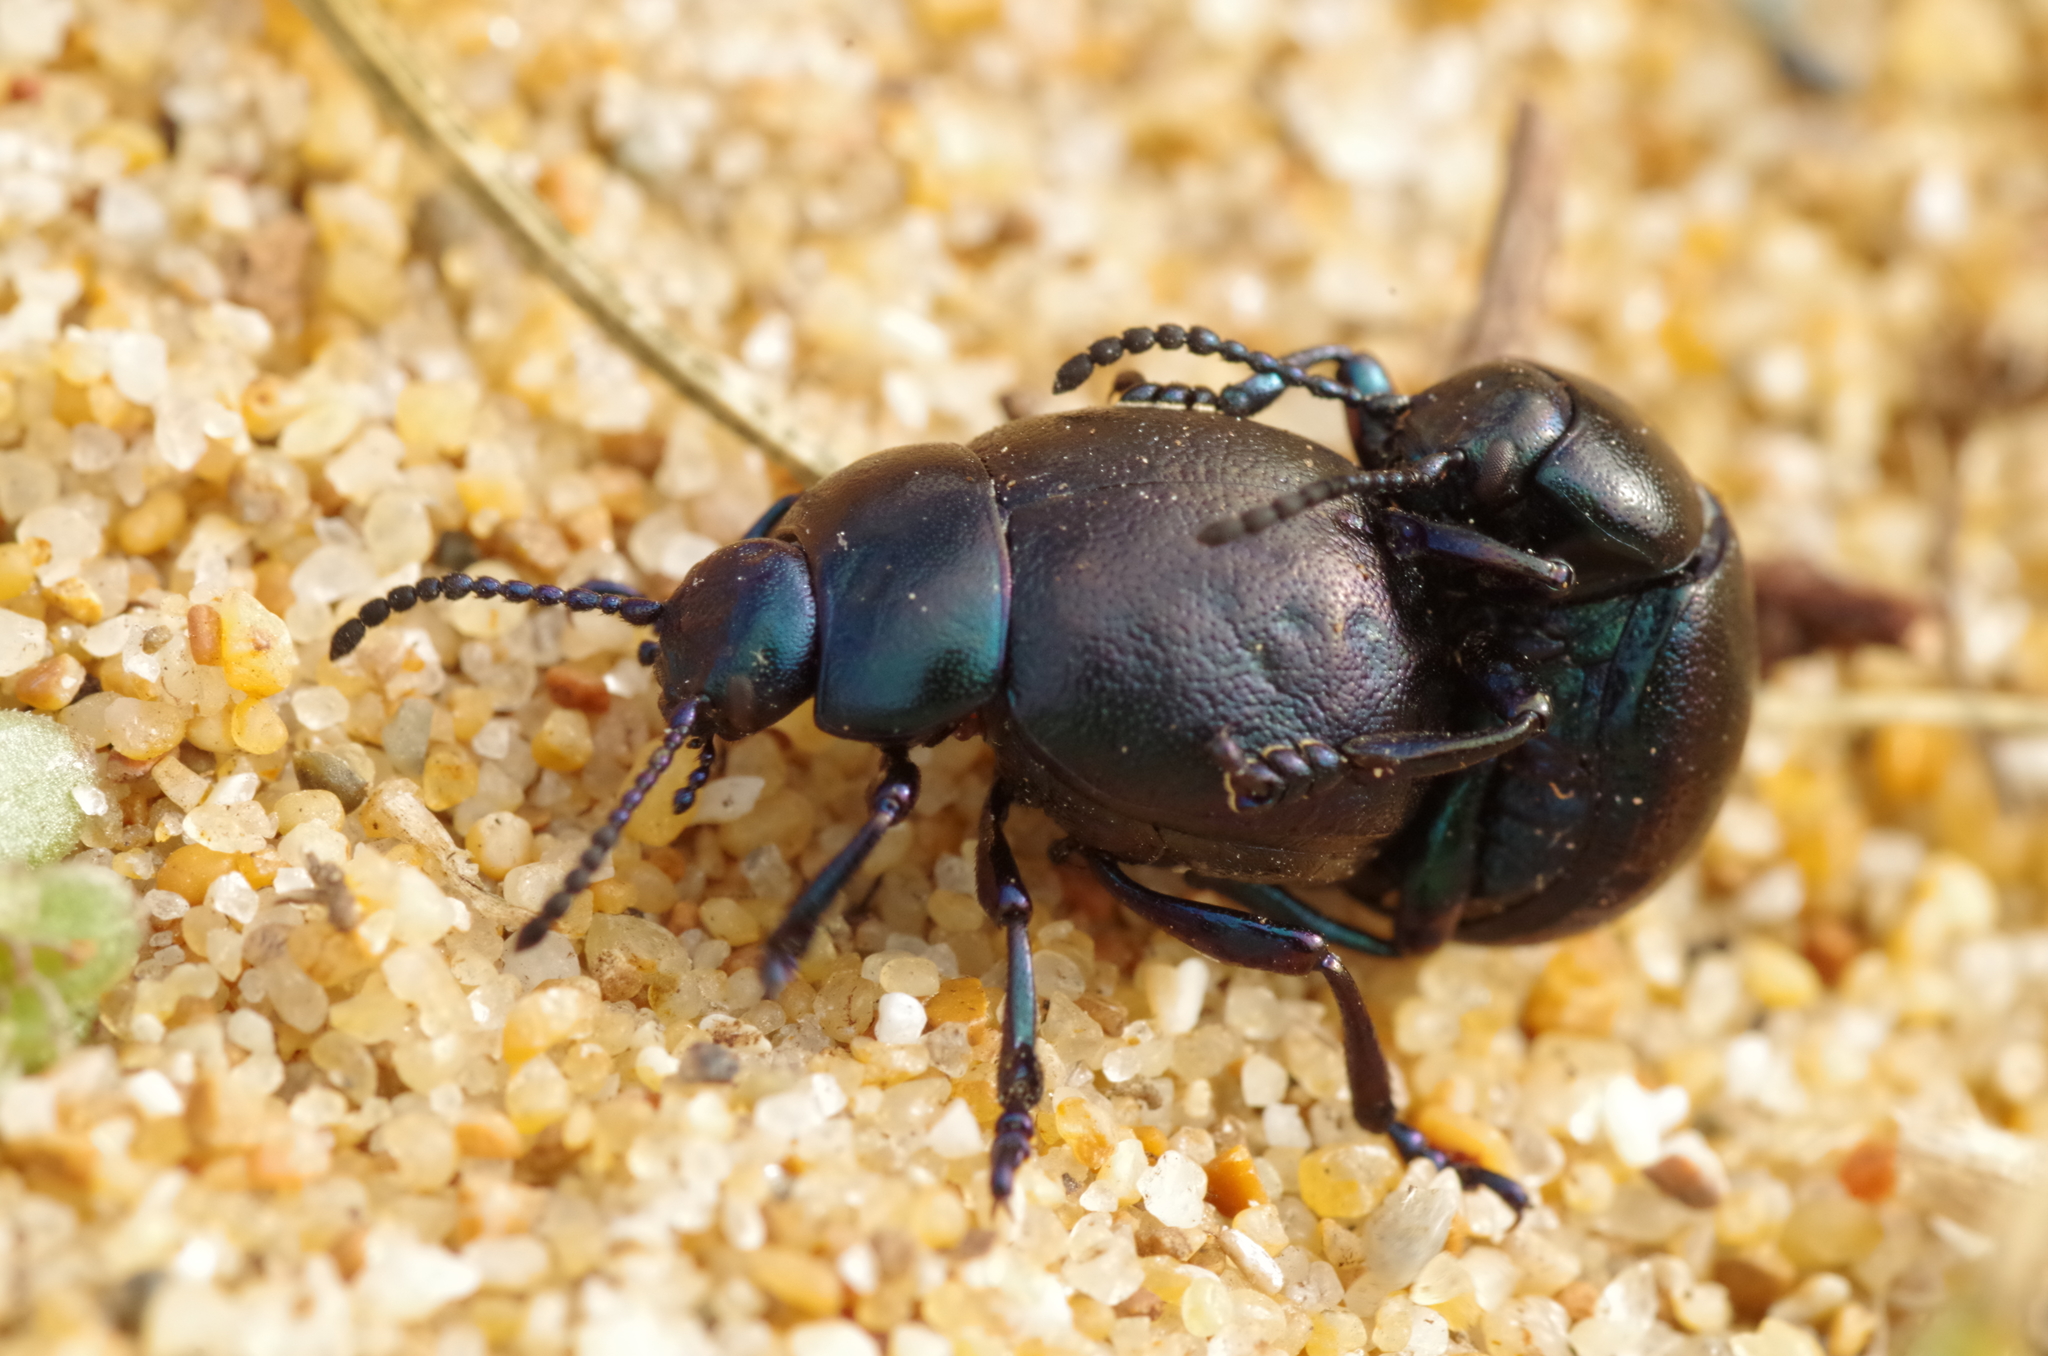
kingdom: Animalia
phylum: Arthropoda
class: Insecta
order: Coleoptera
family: Chrysomelidae
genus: Timarcha
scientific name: Timarcha goettingensis
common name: Small bloody-nosed beetle
